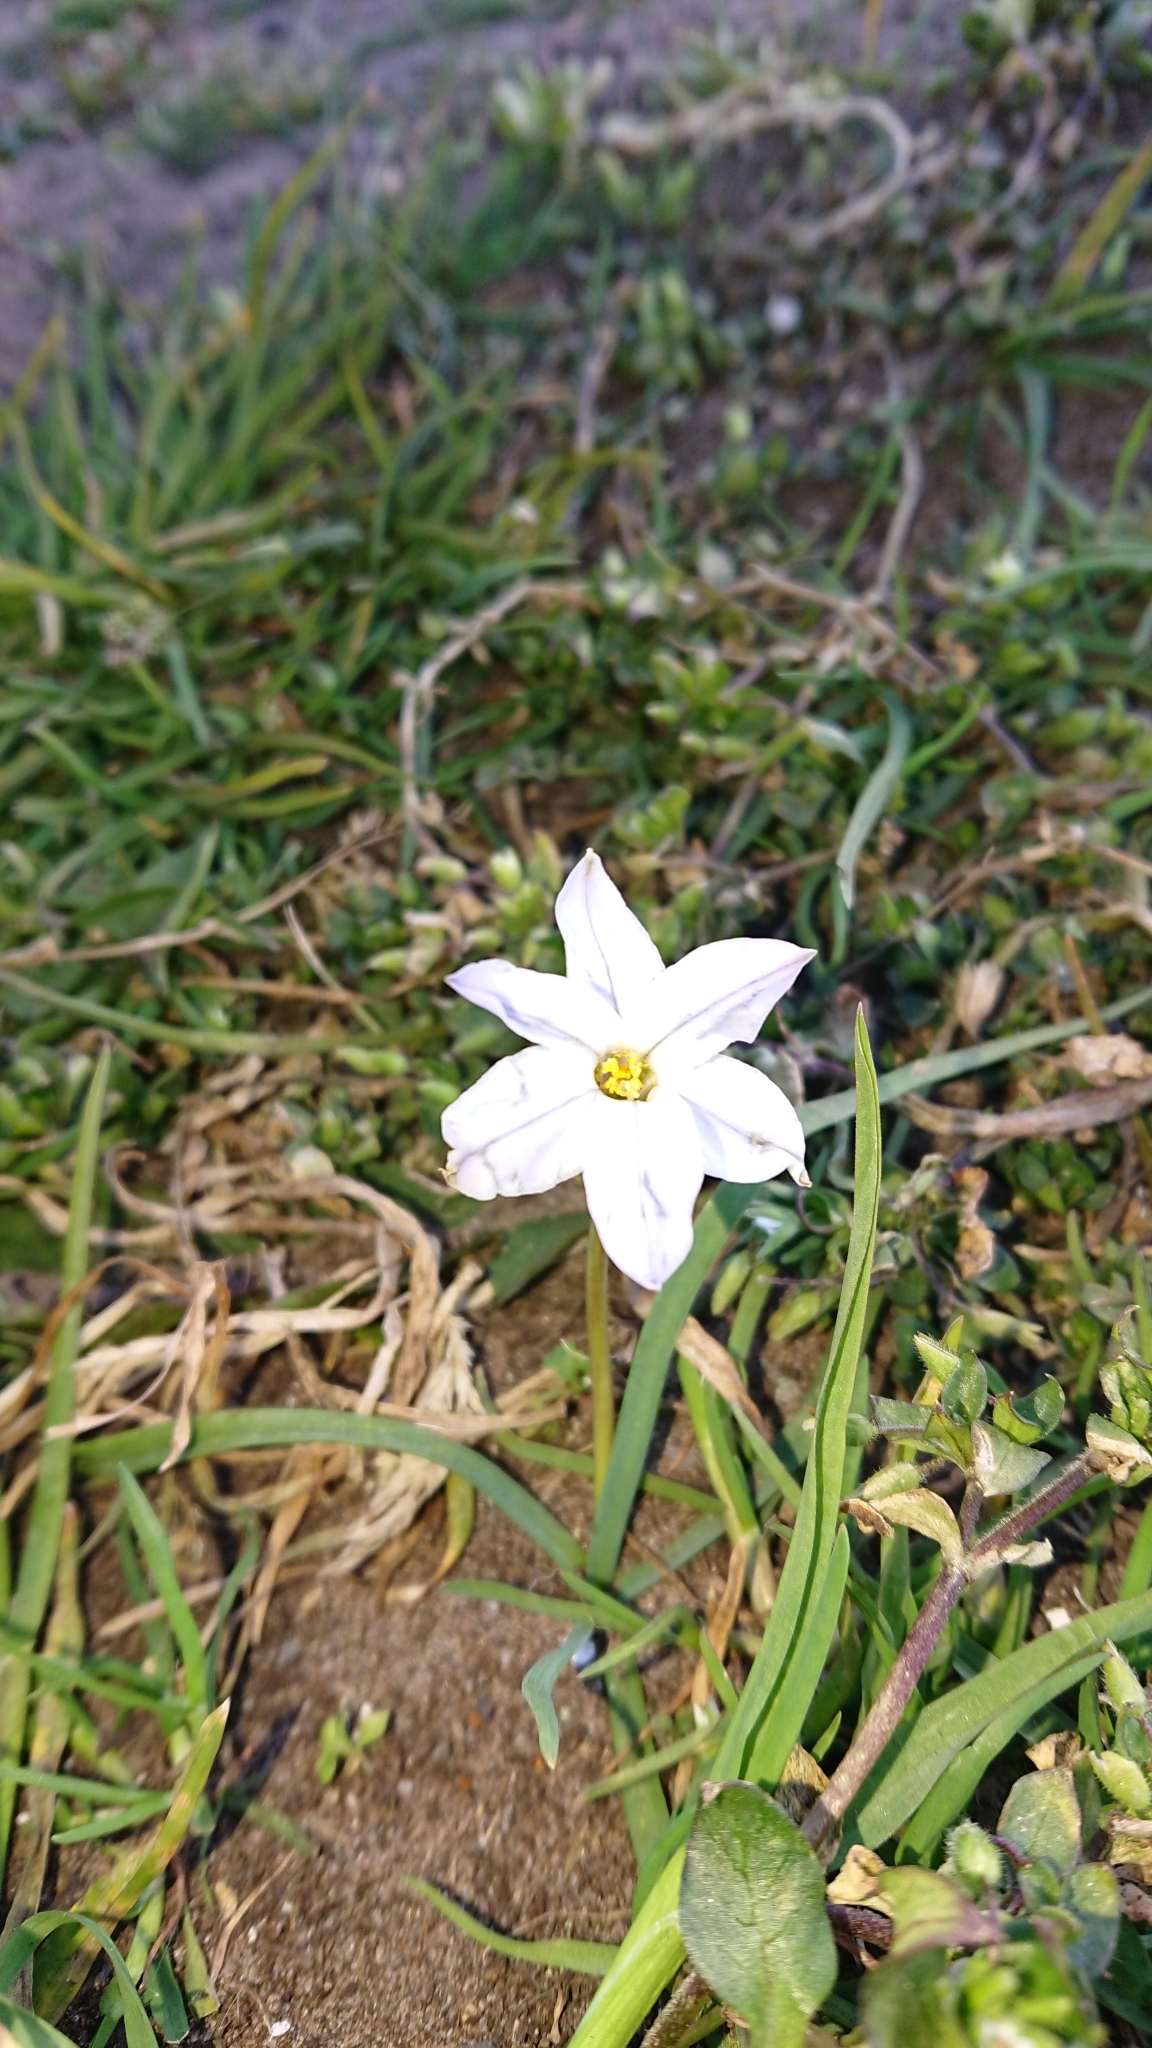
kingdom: Plantae
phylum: Tracheophyta
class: Liliopsida
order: Asparagales
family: Amaryllidaceae
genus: Ipheion
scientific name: Ipheion uniflorum
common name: Spring starflower
